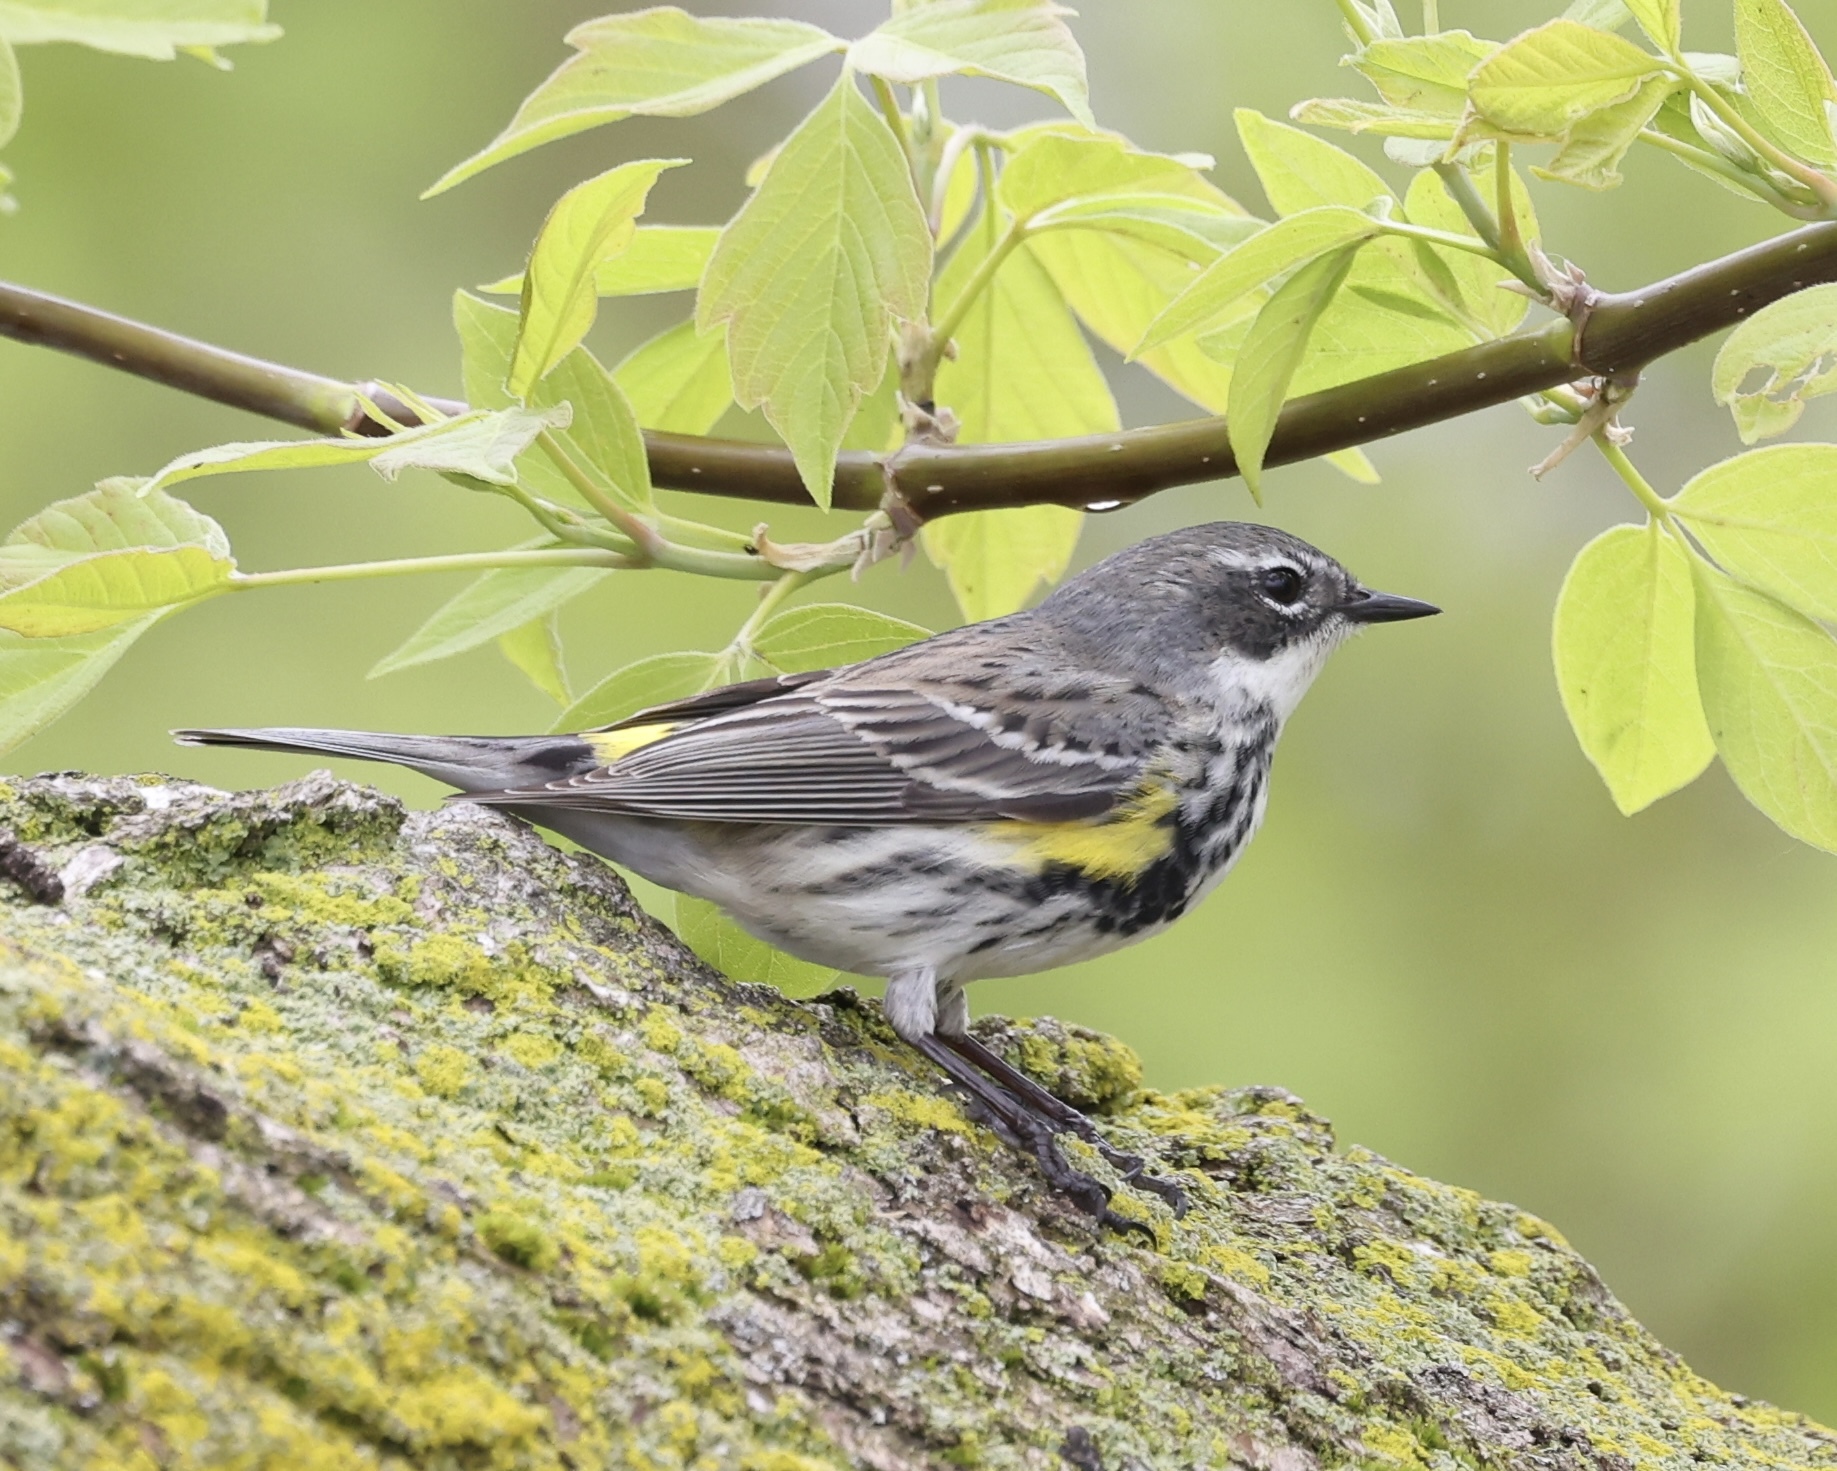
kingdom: Animalia
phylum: Chordata
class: Aves
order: Passeriformes
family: Parulidae
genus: Setophaga
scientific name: Setophaga coronata
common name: Myrtle warbler
